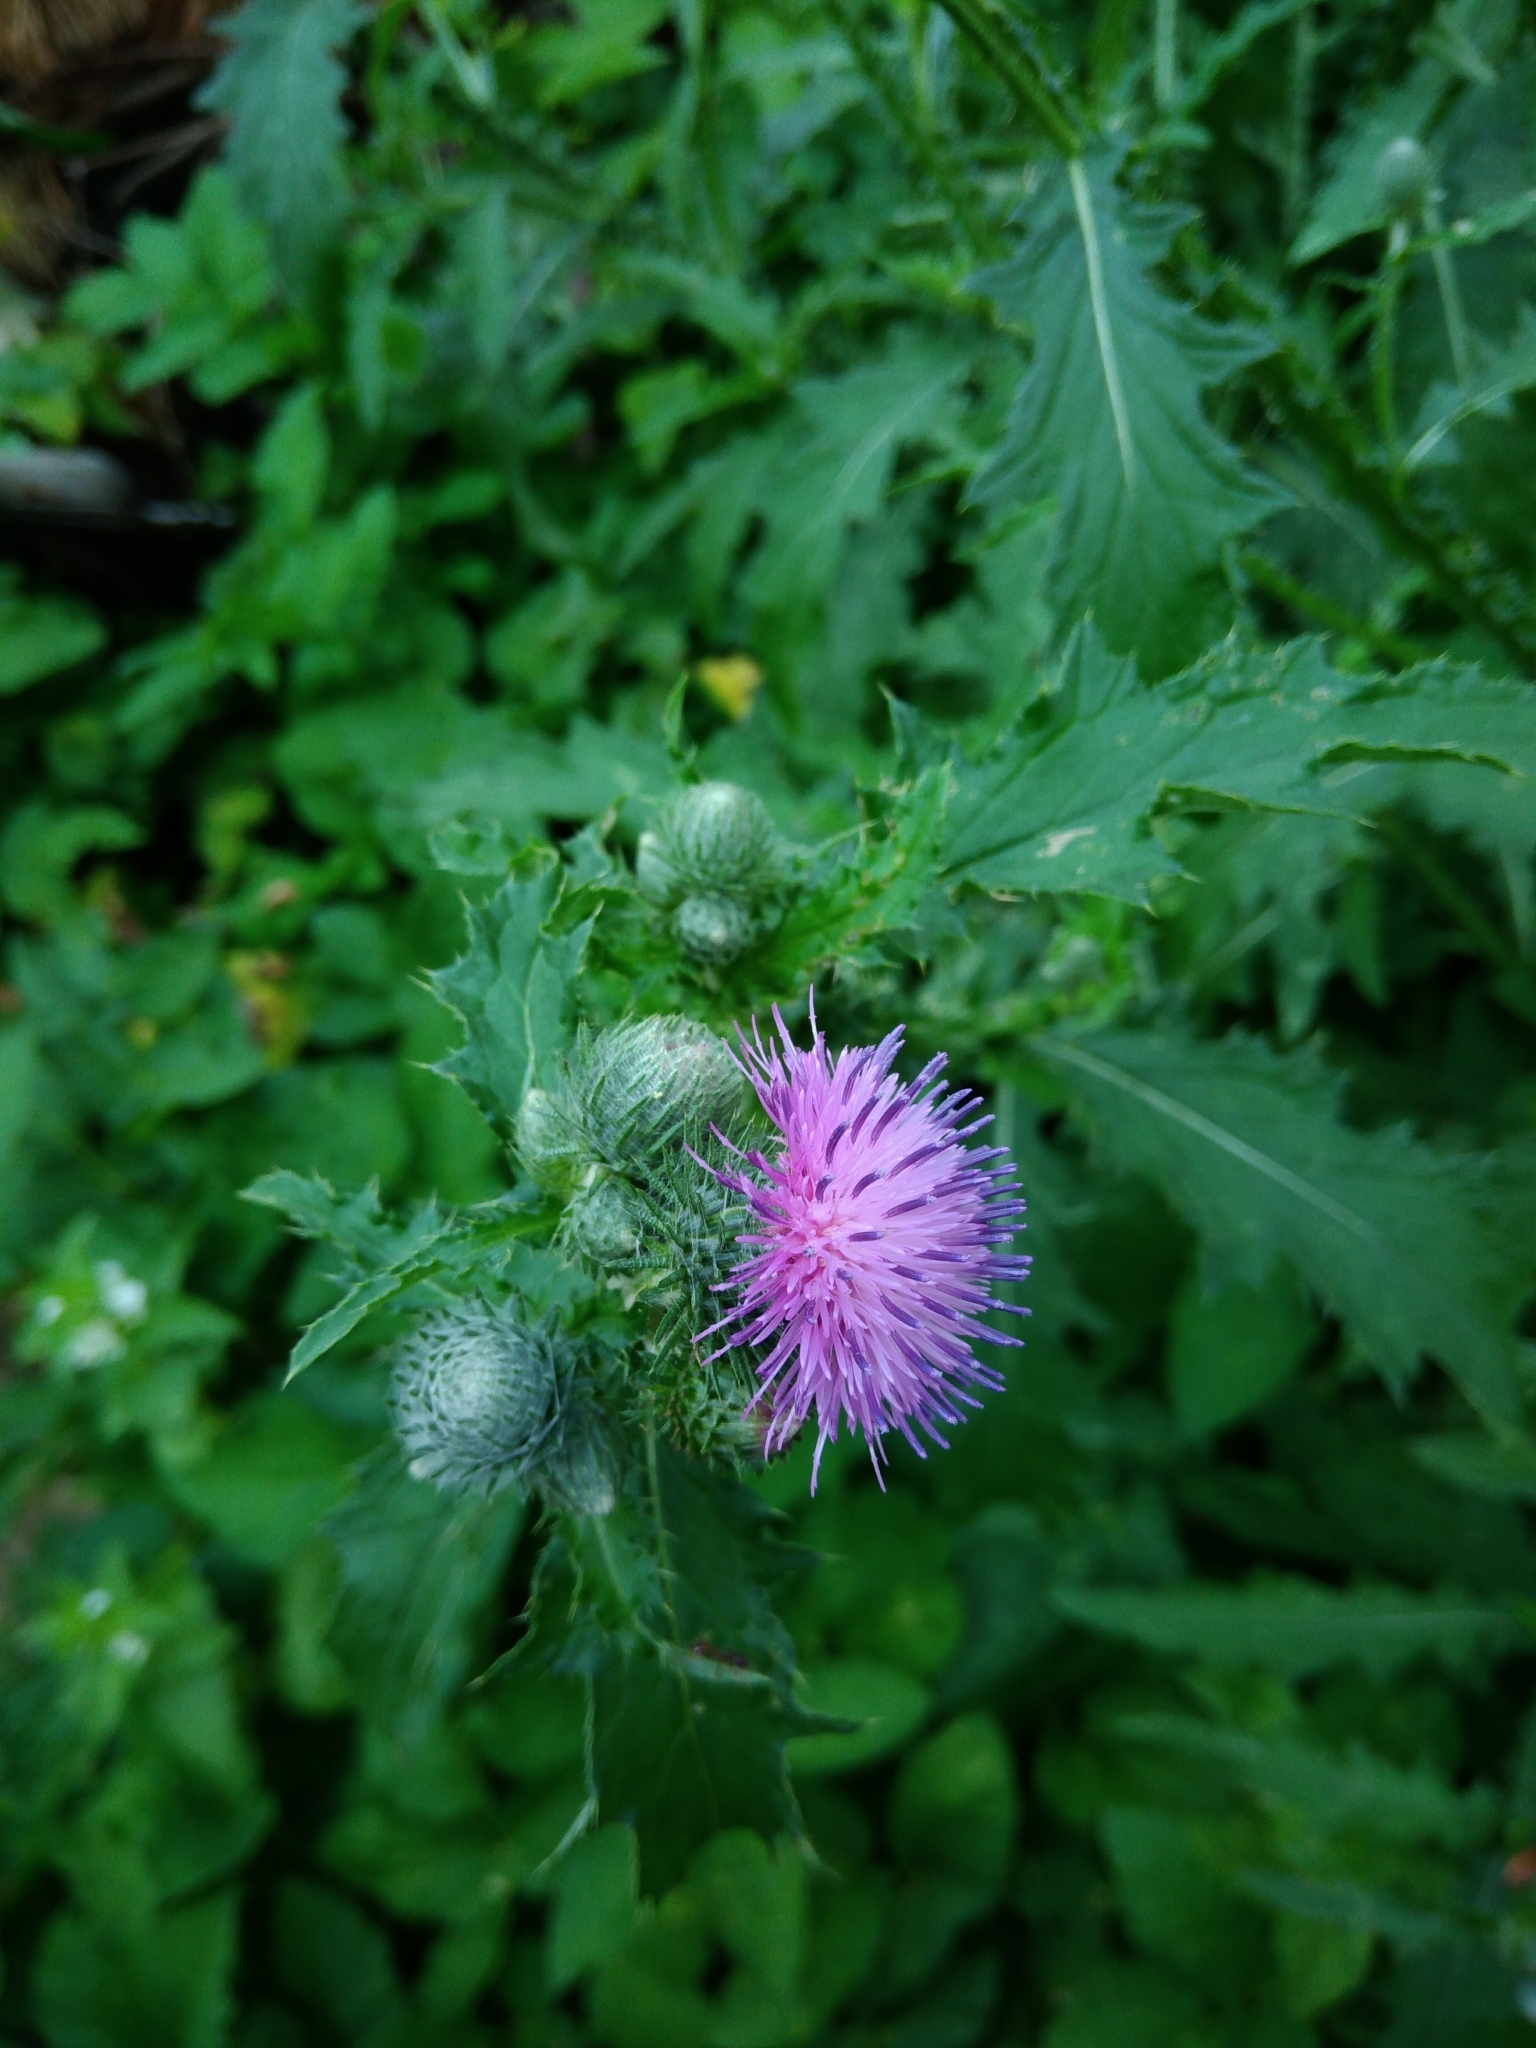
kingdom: Plantae
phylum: Tracheophyta
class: Magnoliopsida
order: Asterales
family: Asteraceae
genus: Carduus
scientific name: Carduus crispus
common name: Welted thistle
